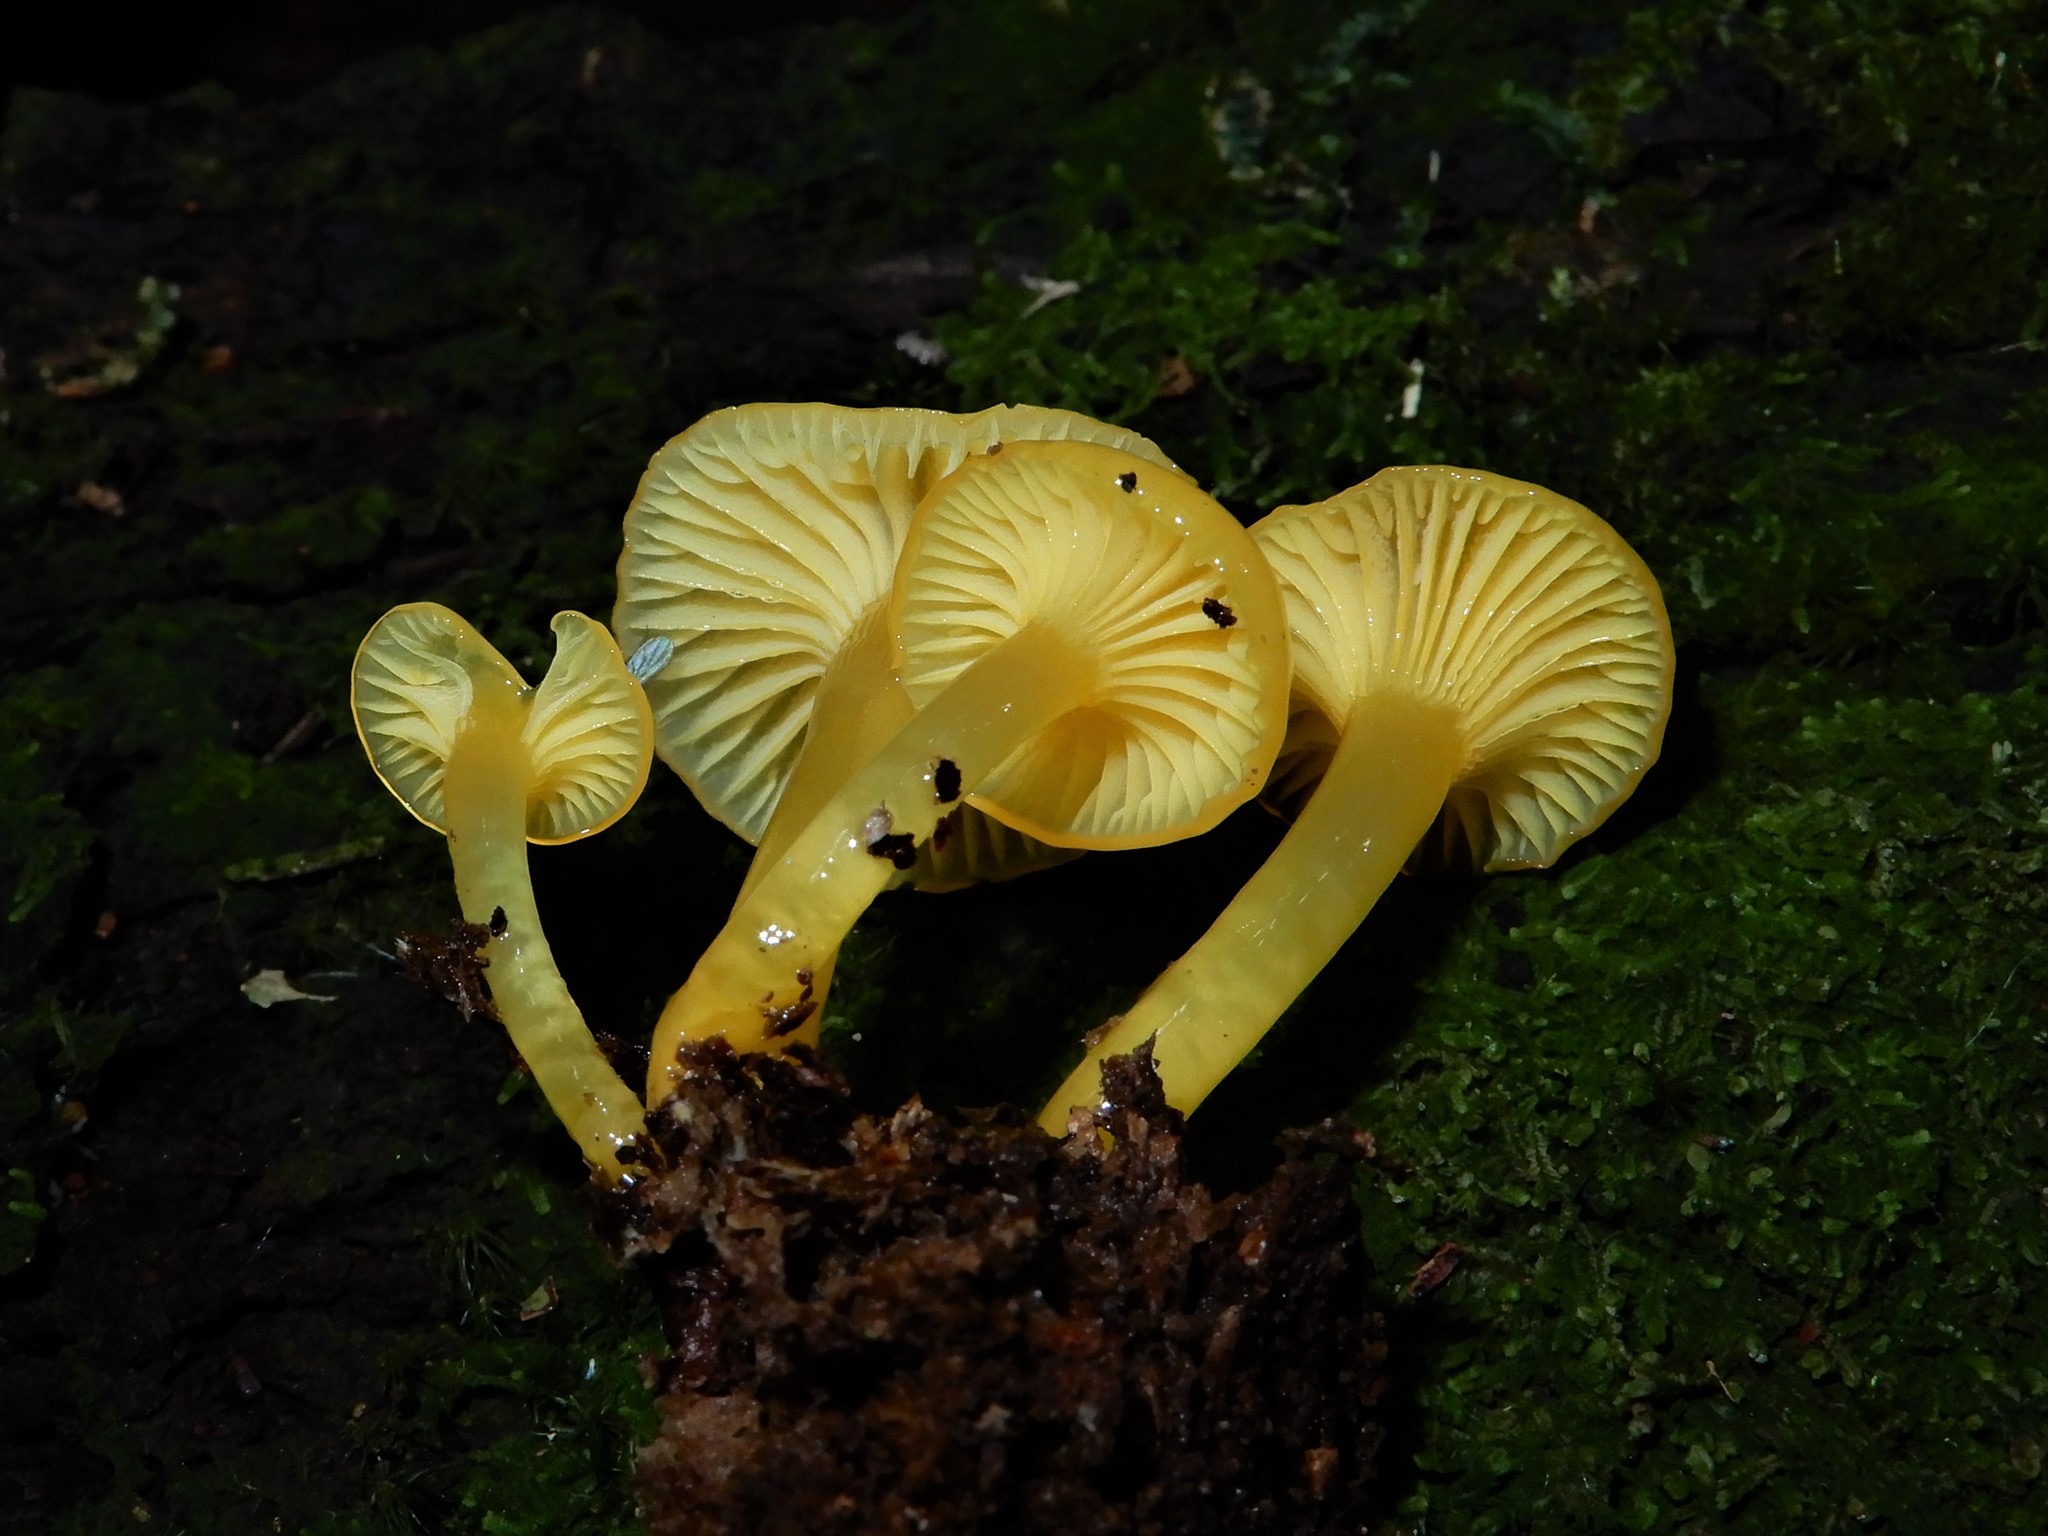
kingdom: Fungi
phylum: Basidiomycota
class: Agaricomycetes
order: Agaricales
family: Hygrophoraceae
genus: Gloioxanthomyces
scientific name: Gloioxanthomyces
